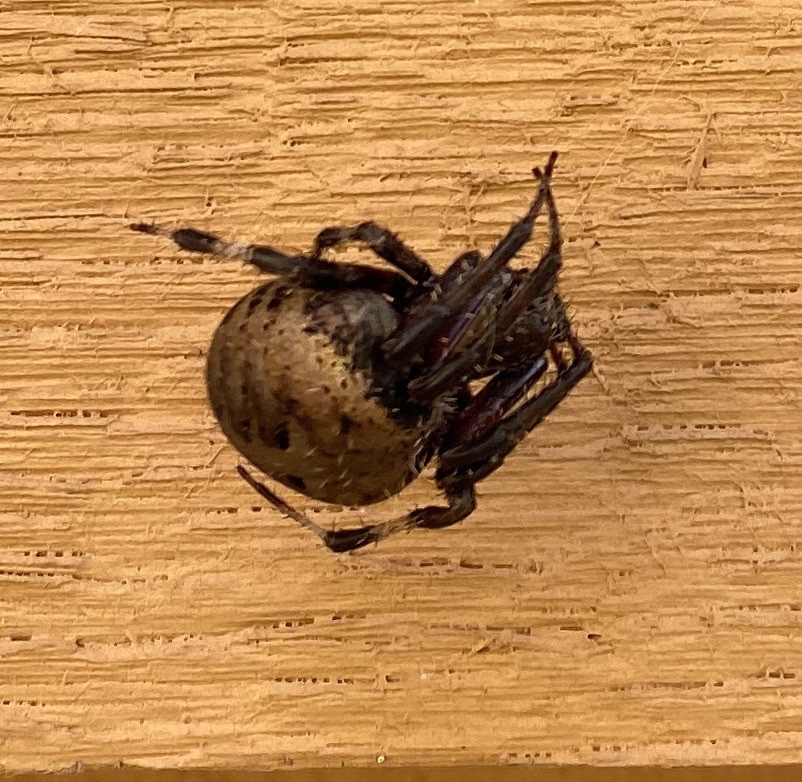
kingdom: Animalia
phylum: Arthropoda
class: Arachnida
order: Araneae
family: Araneidae
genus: Neoscona
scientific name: Neoscona crucifera
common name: Spotted orbweaver
